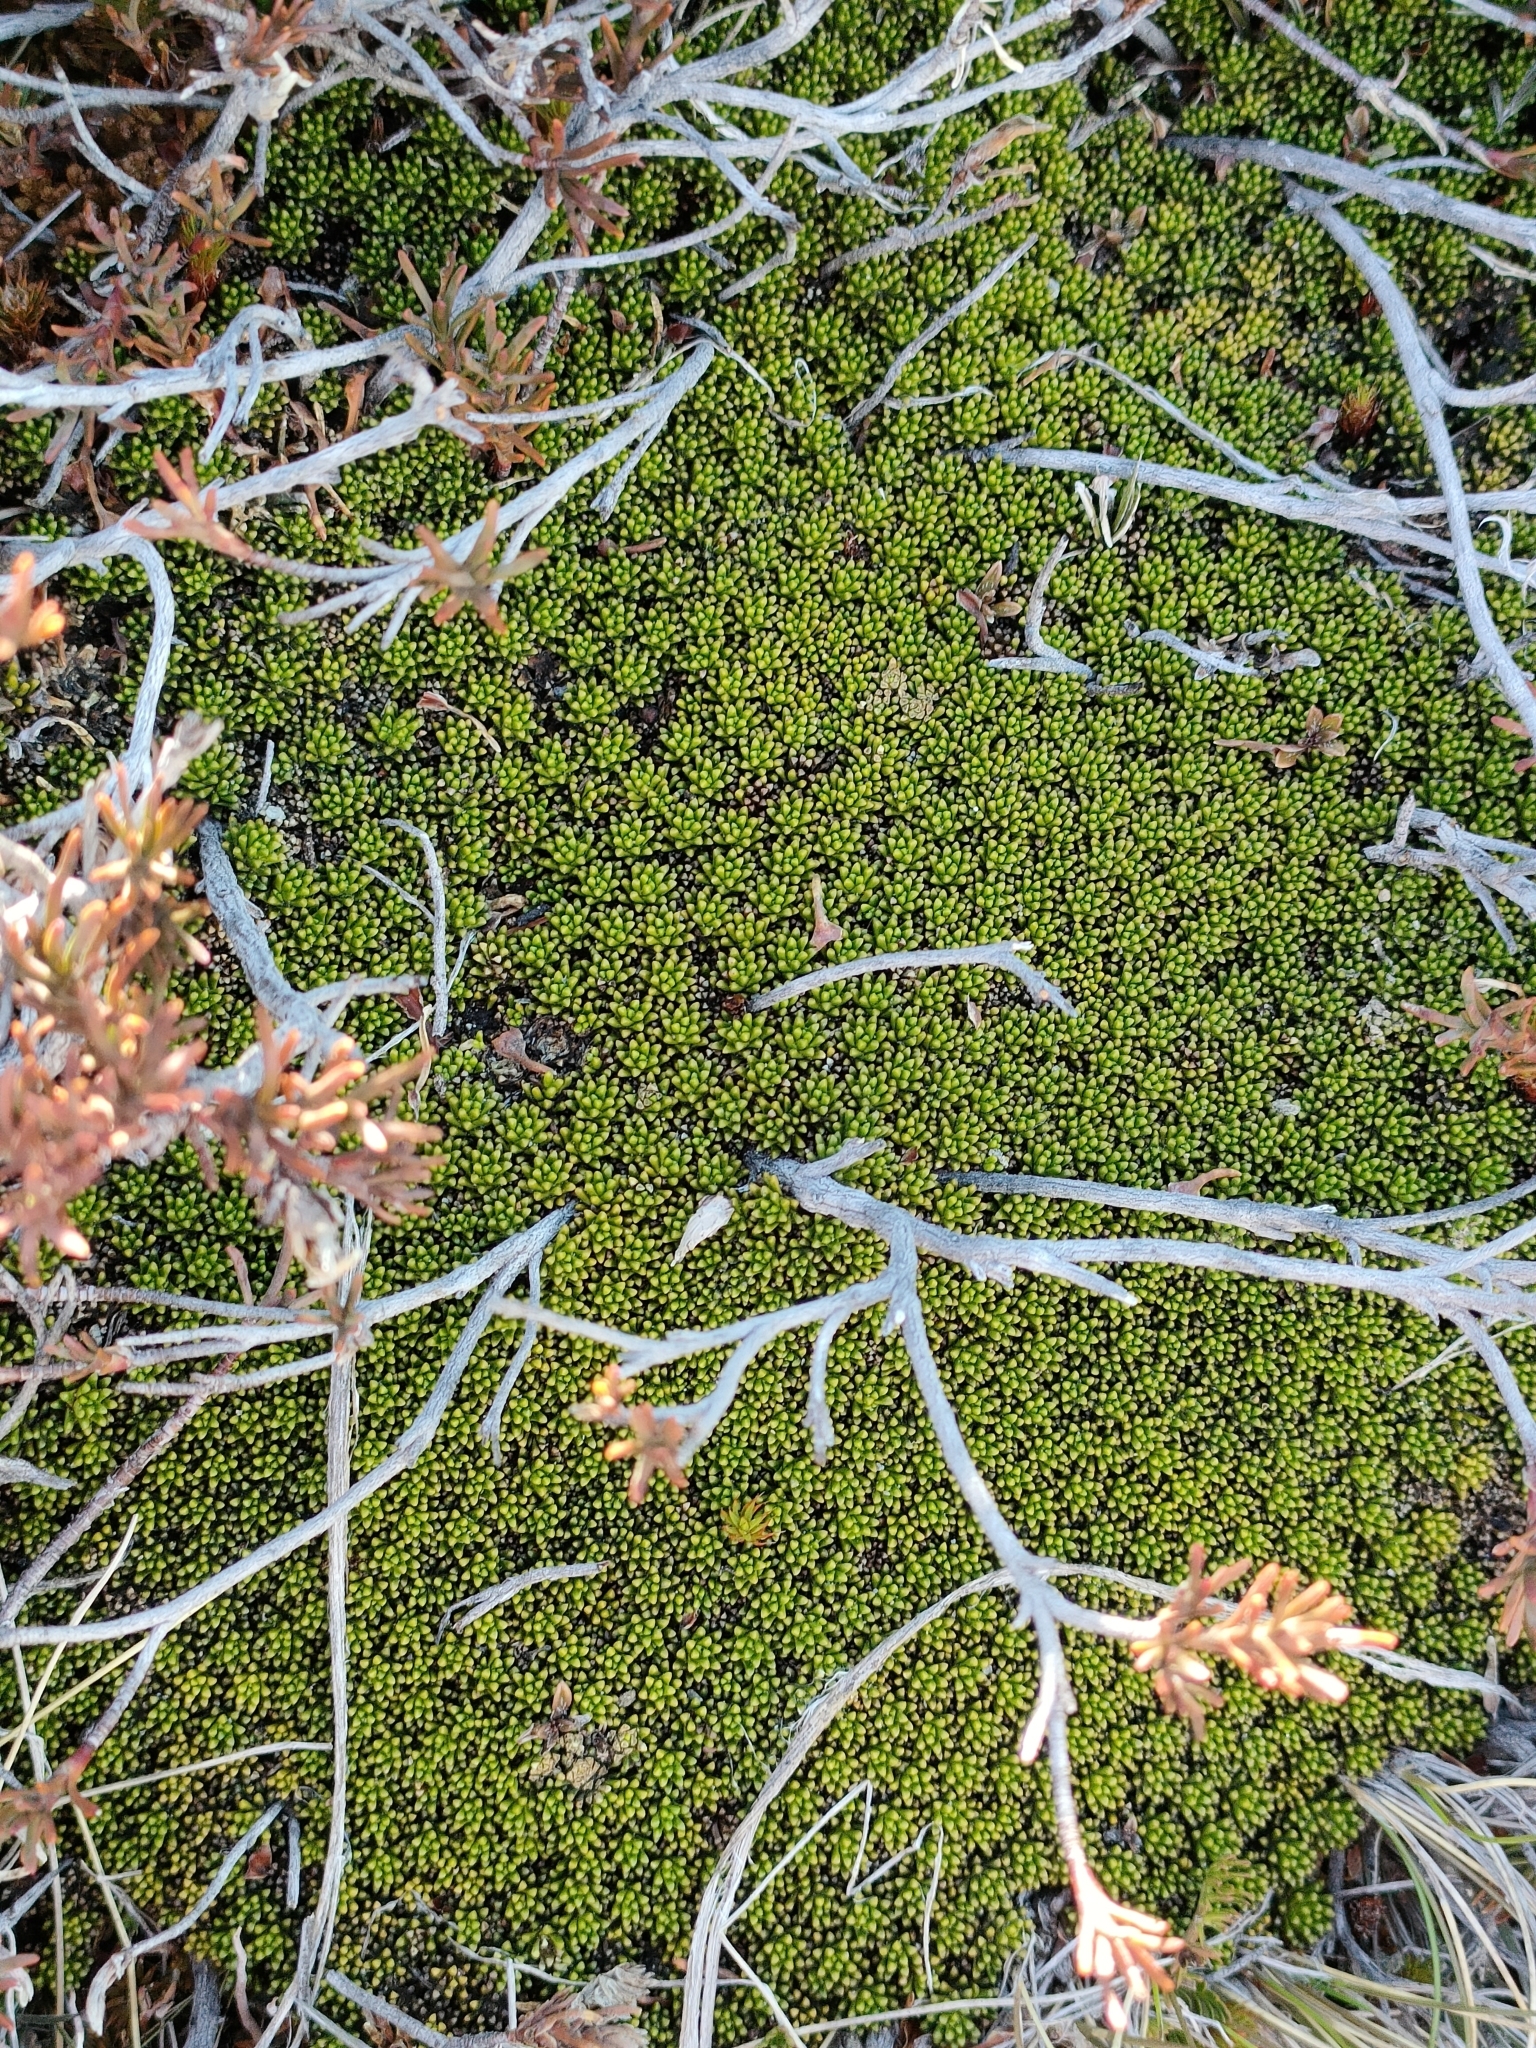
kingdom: Plantae
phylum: Tracheophyta
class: Magnoliopsida
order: Asterales
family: Stylidiaceae
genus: Phyllachne
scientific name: Phyllachne colensoi
